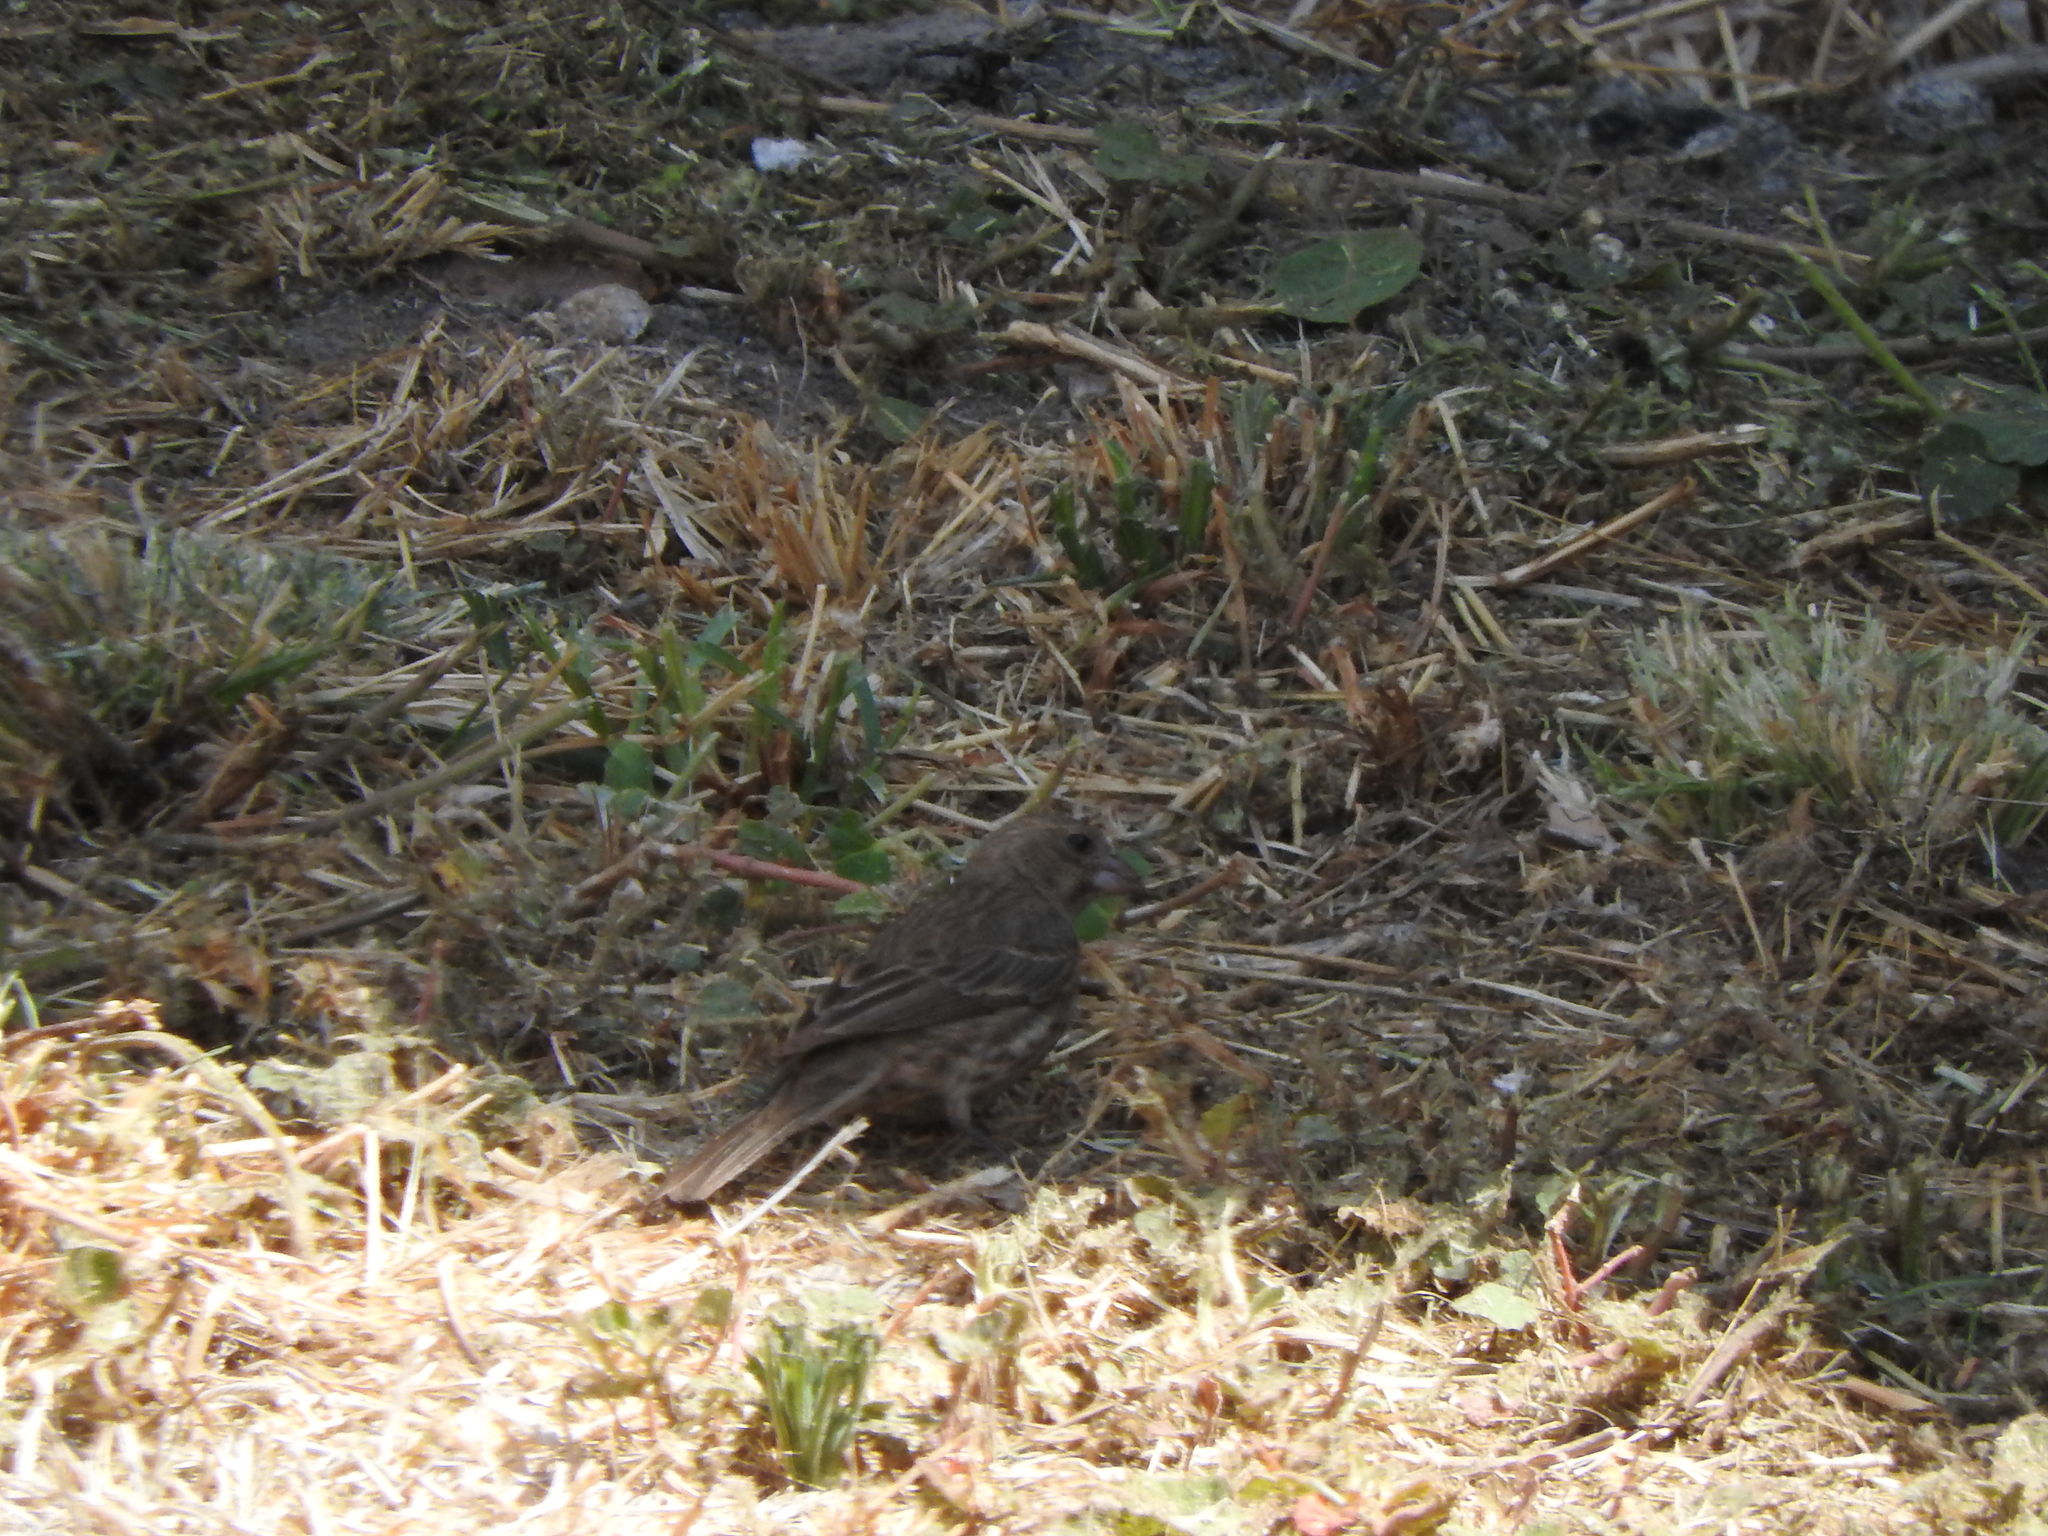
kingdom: Animalia
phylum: Chordata
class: Aves
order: Passeriformes
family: Fringillidae
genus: Haemorhous
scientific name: Haemorhous mexicanus
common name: House finch
